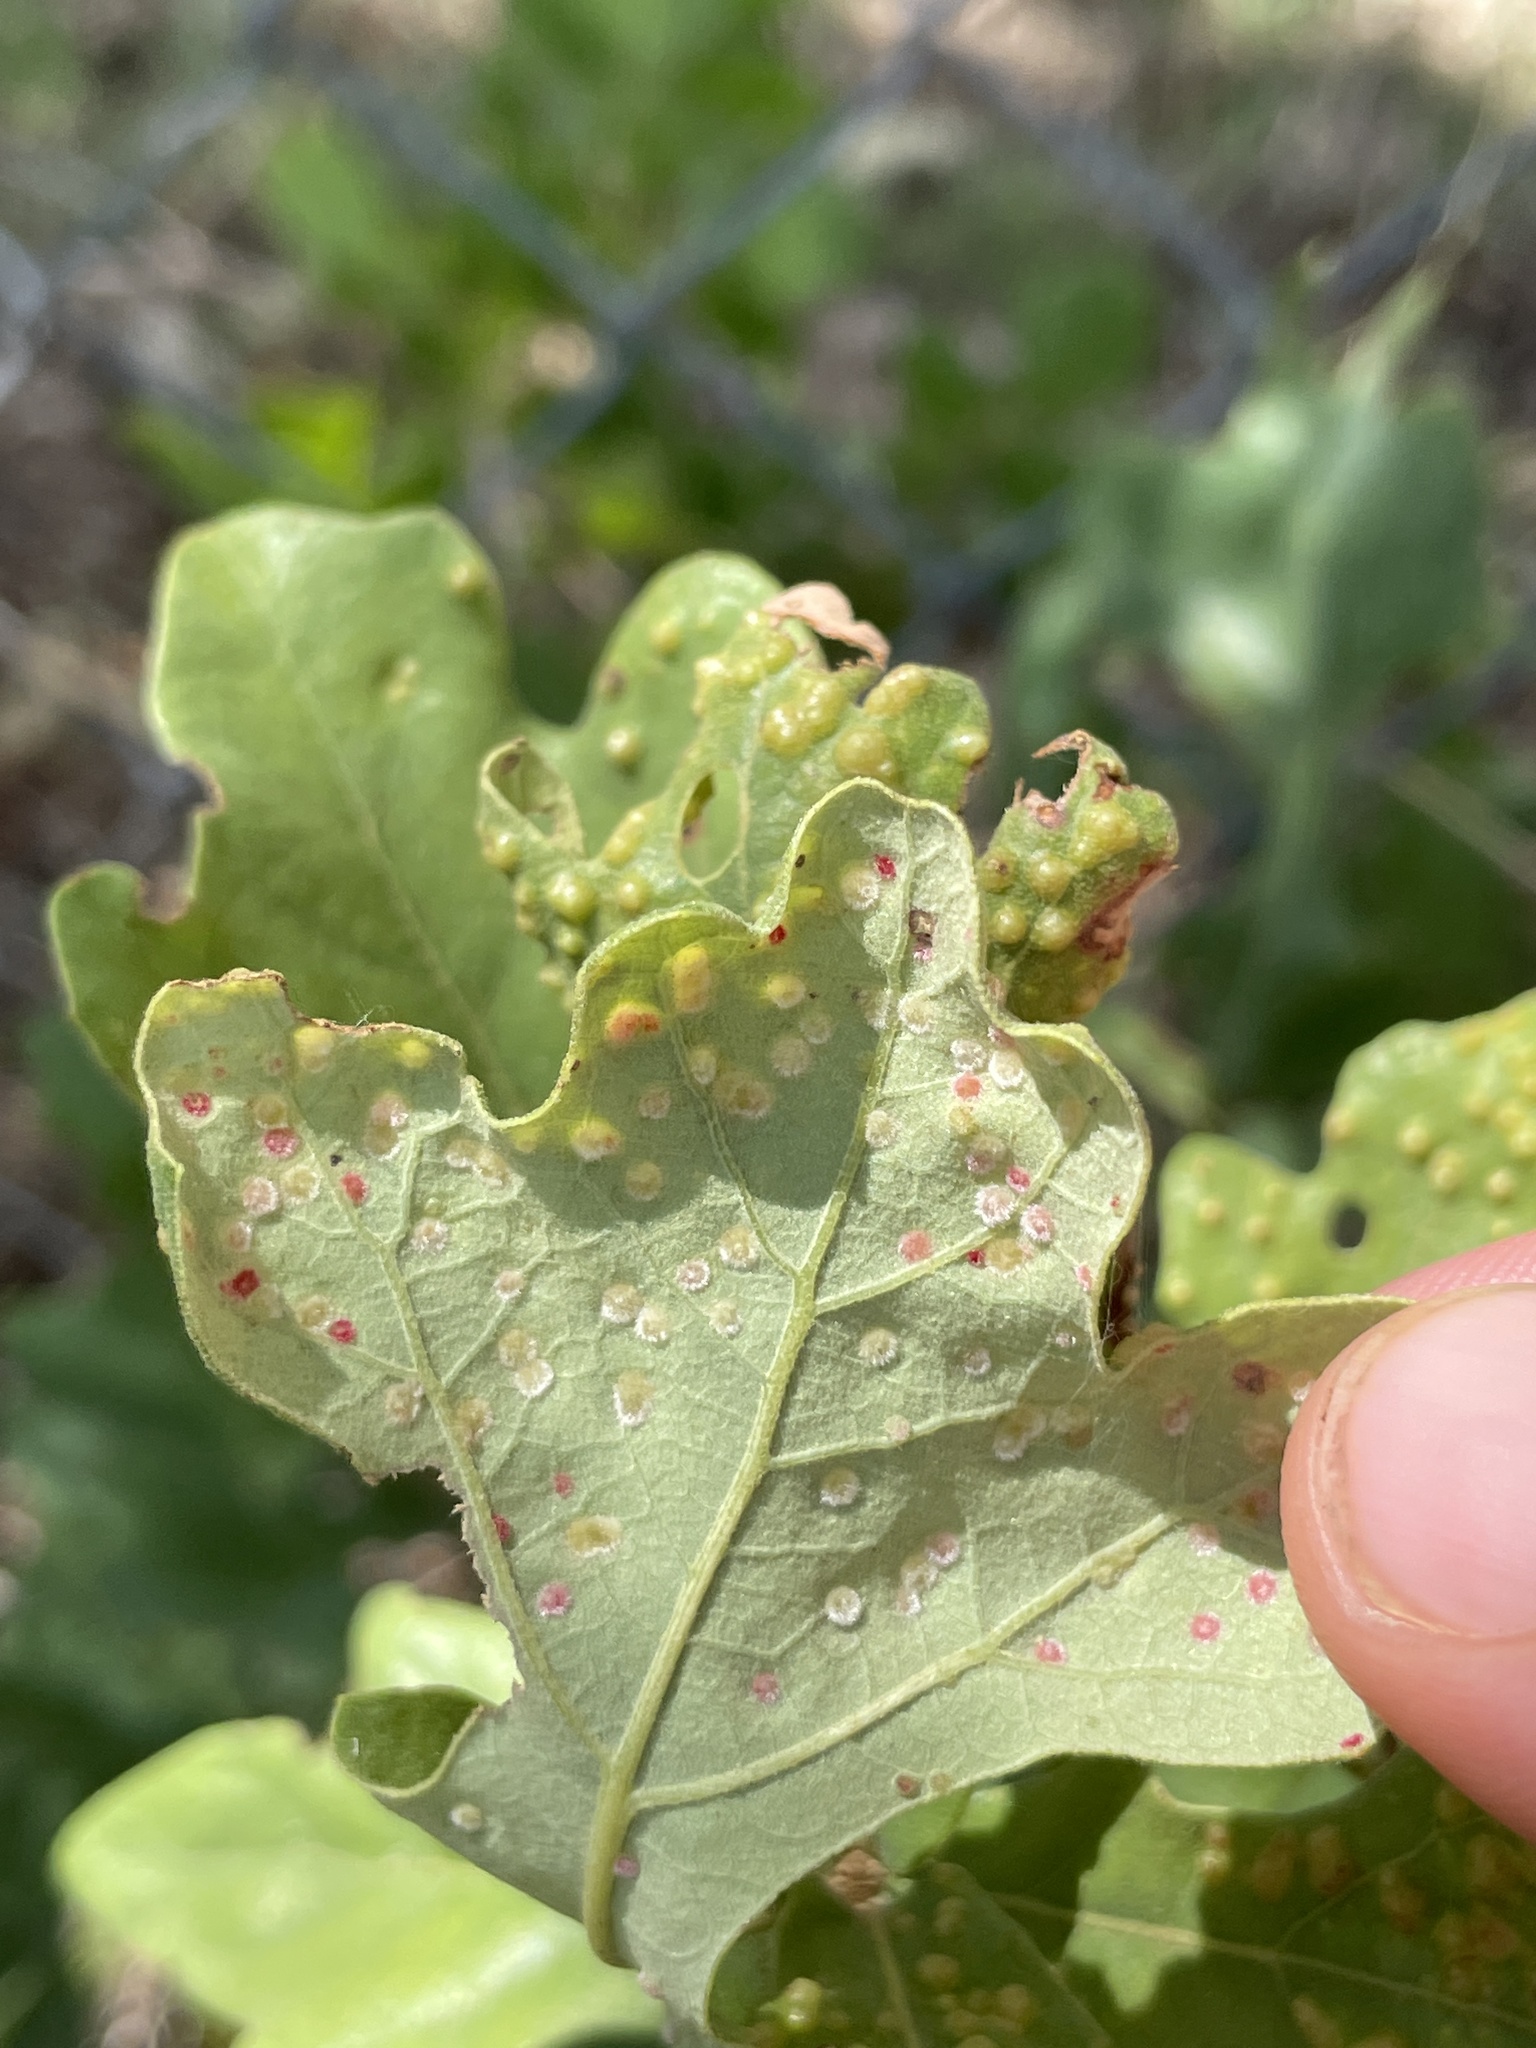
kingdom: Animalia
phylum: Arthropoda
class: Insecta
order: Hymenoptera
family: Cynipidae
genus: Neuroterus
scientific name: Neuroterus quercusverrucarum
